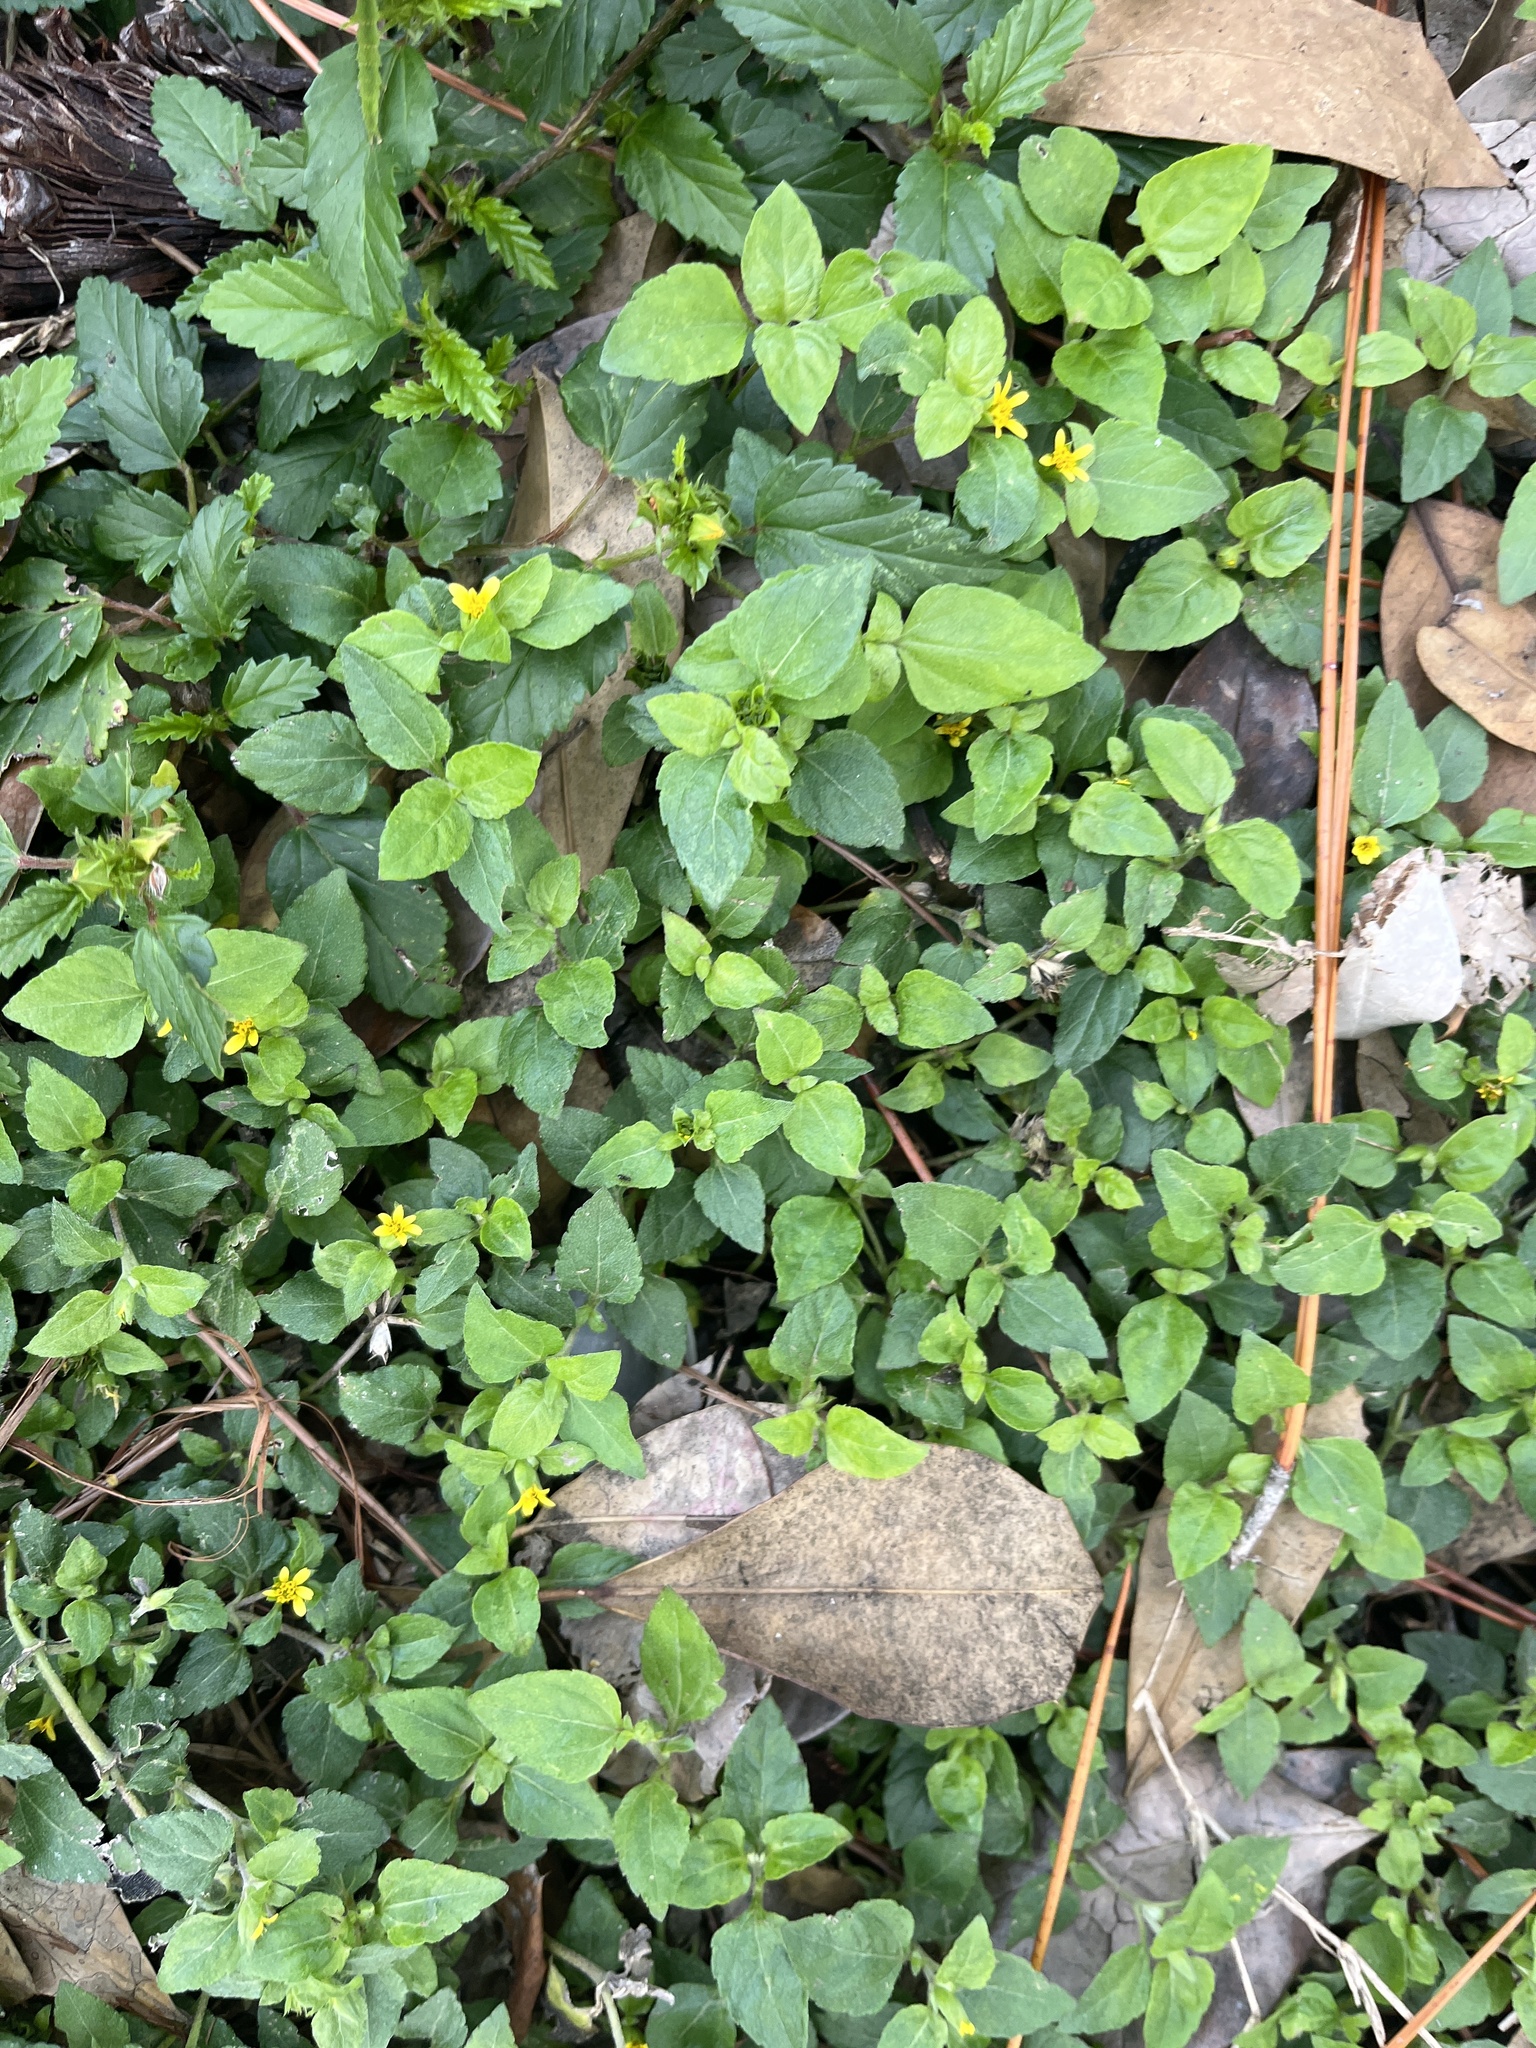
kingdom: Plantae
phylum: Tracheophyta
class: Magnoliopsida
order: Asterales
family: Asteraceae
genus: Calyptocarpus
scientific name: Calyptocarpus vialis
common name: Straggler daisy
